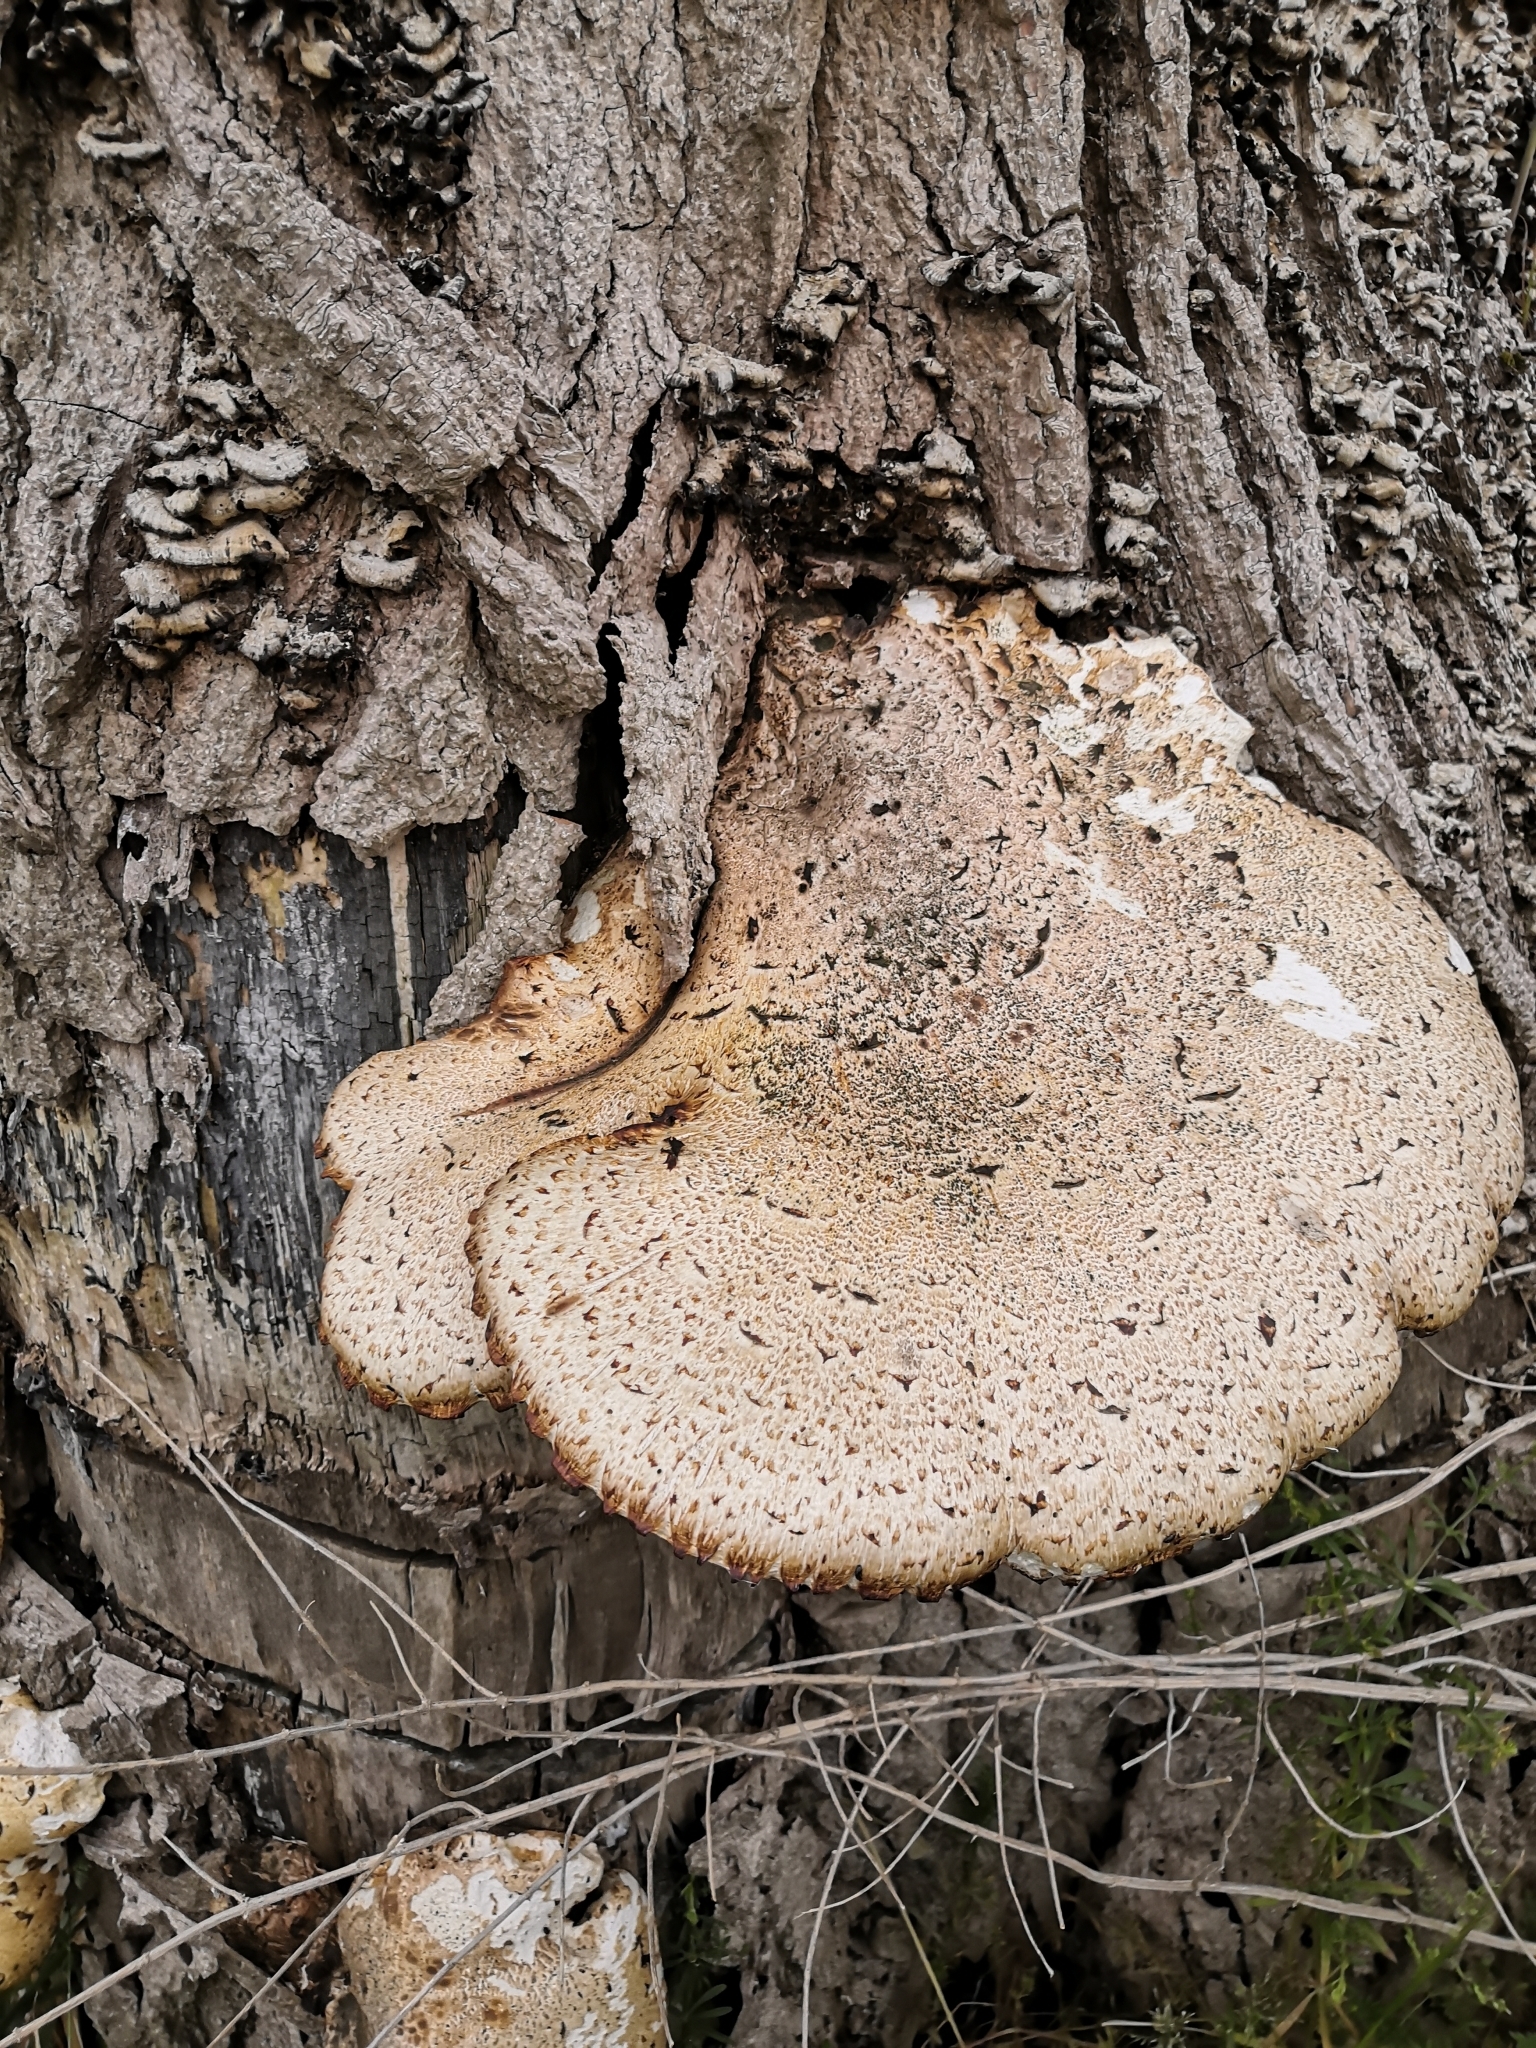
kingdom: Fungi
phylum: Basidiomycota
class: Agaricomycetes
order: Polyporales
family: Polyporaceae
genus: Cerioporus
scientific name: Cerioporus squamosus
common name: Dryad's saddle
